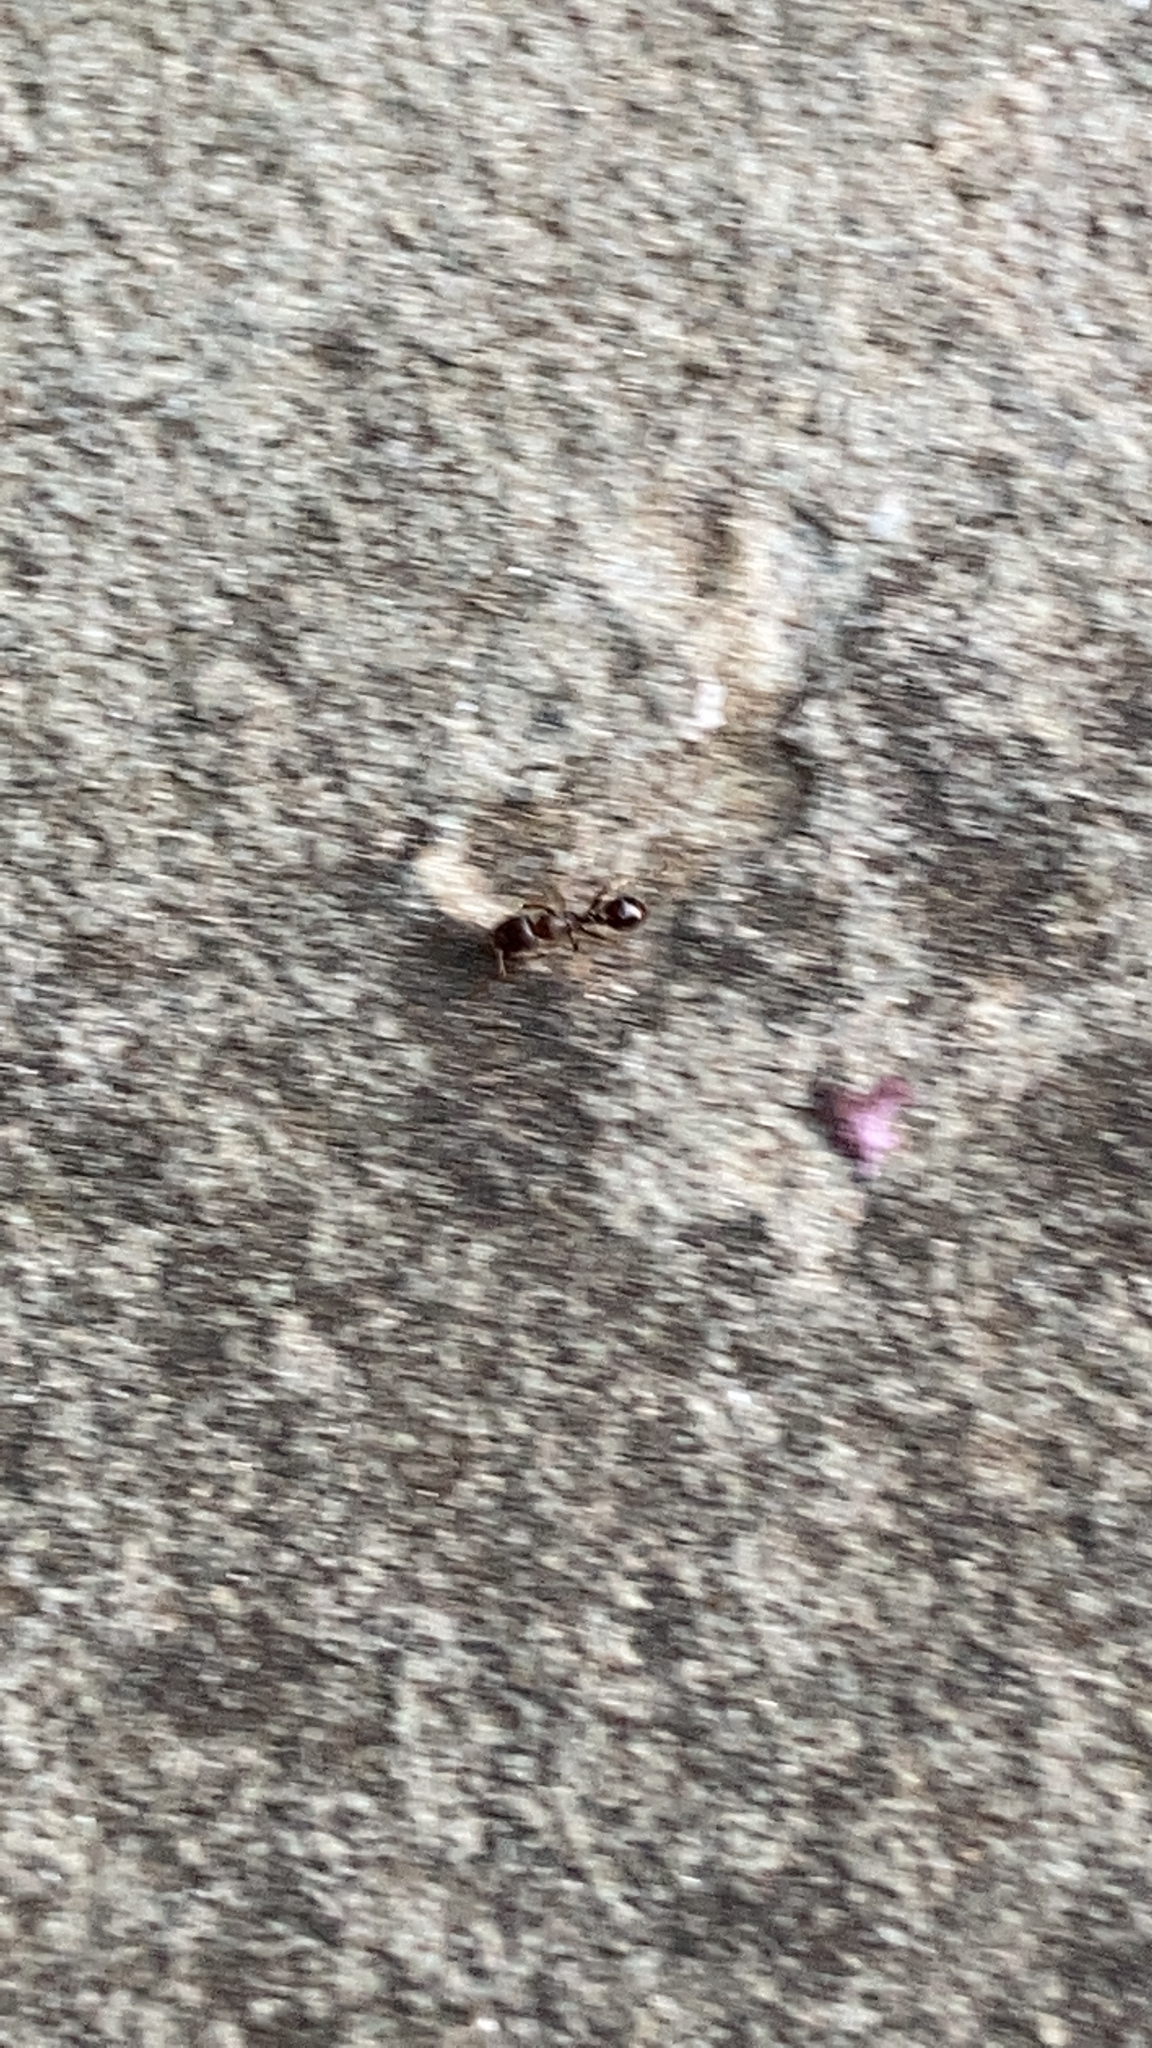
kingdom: Animalia
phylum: Arthropoda
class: Insecta
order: Hymenoptera
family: Formicidae
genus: Tetramorium
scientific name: Tetramorium immigrans
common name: Pavement ant
